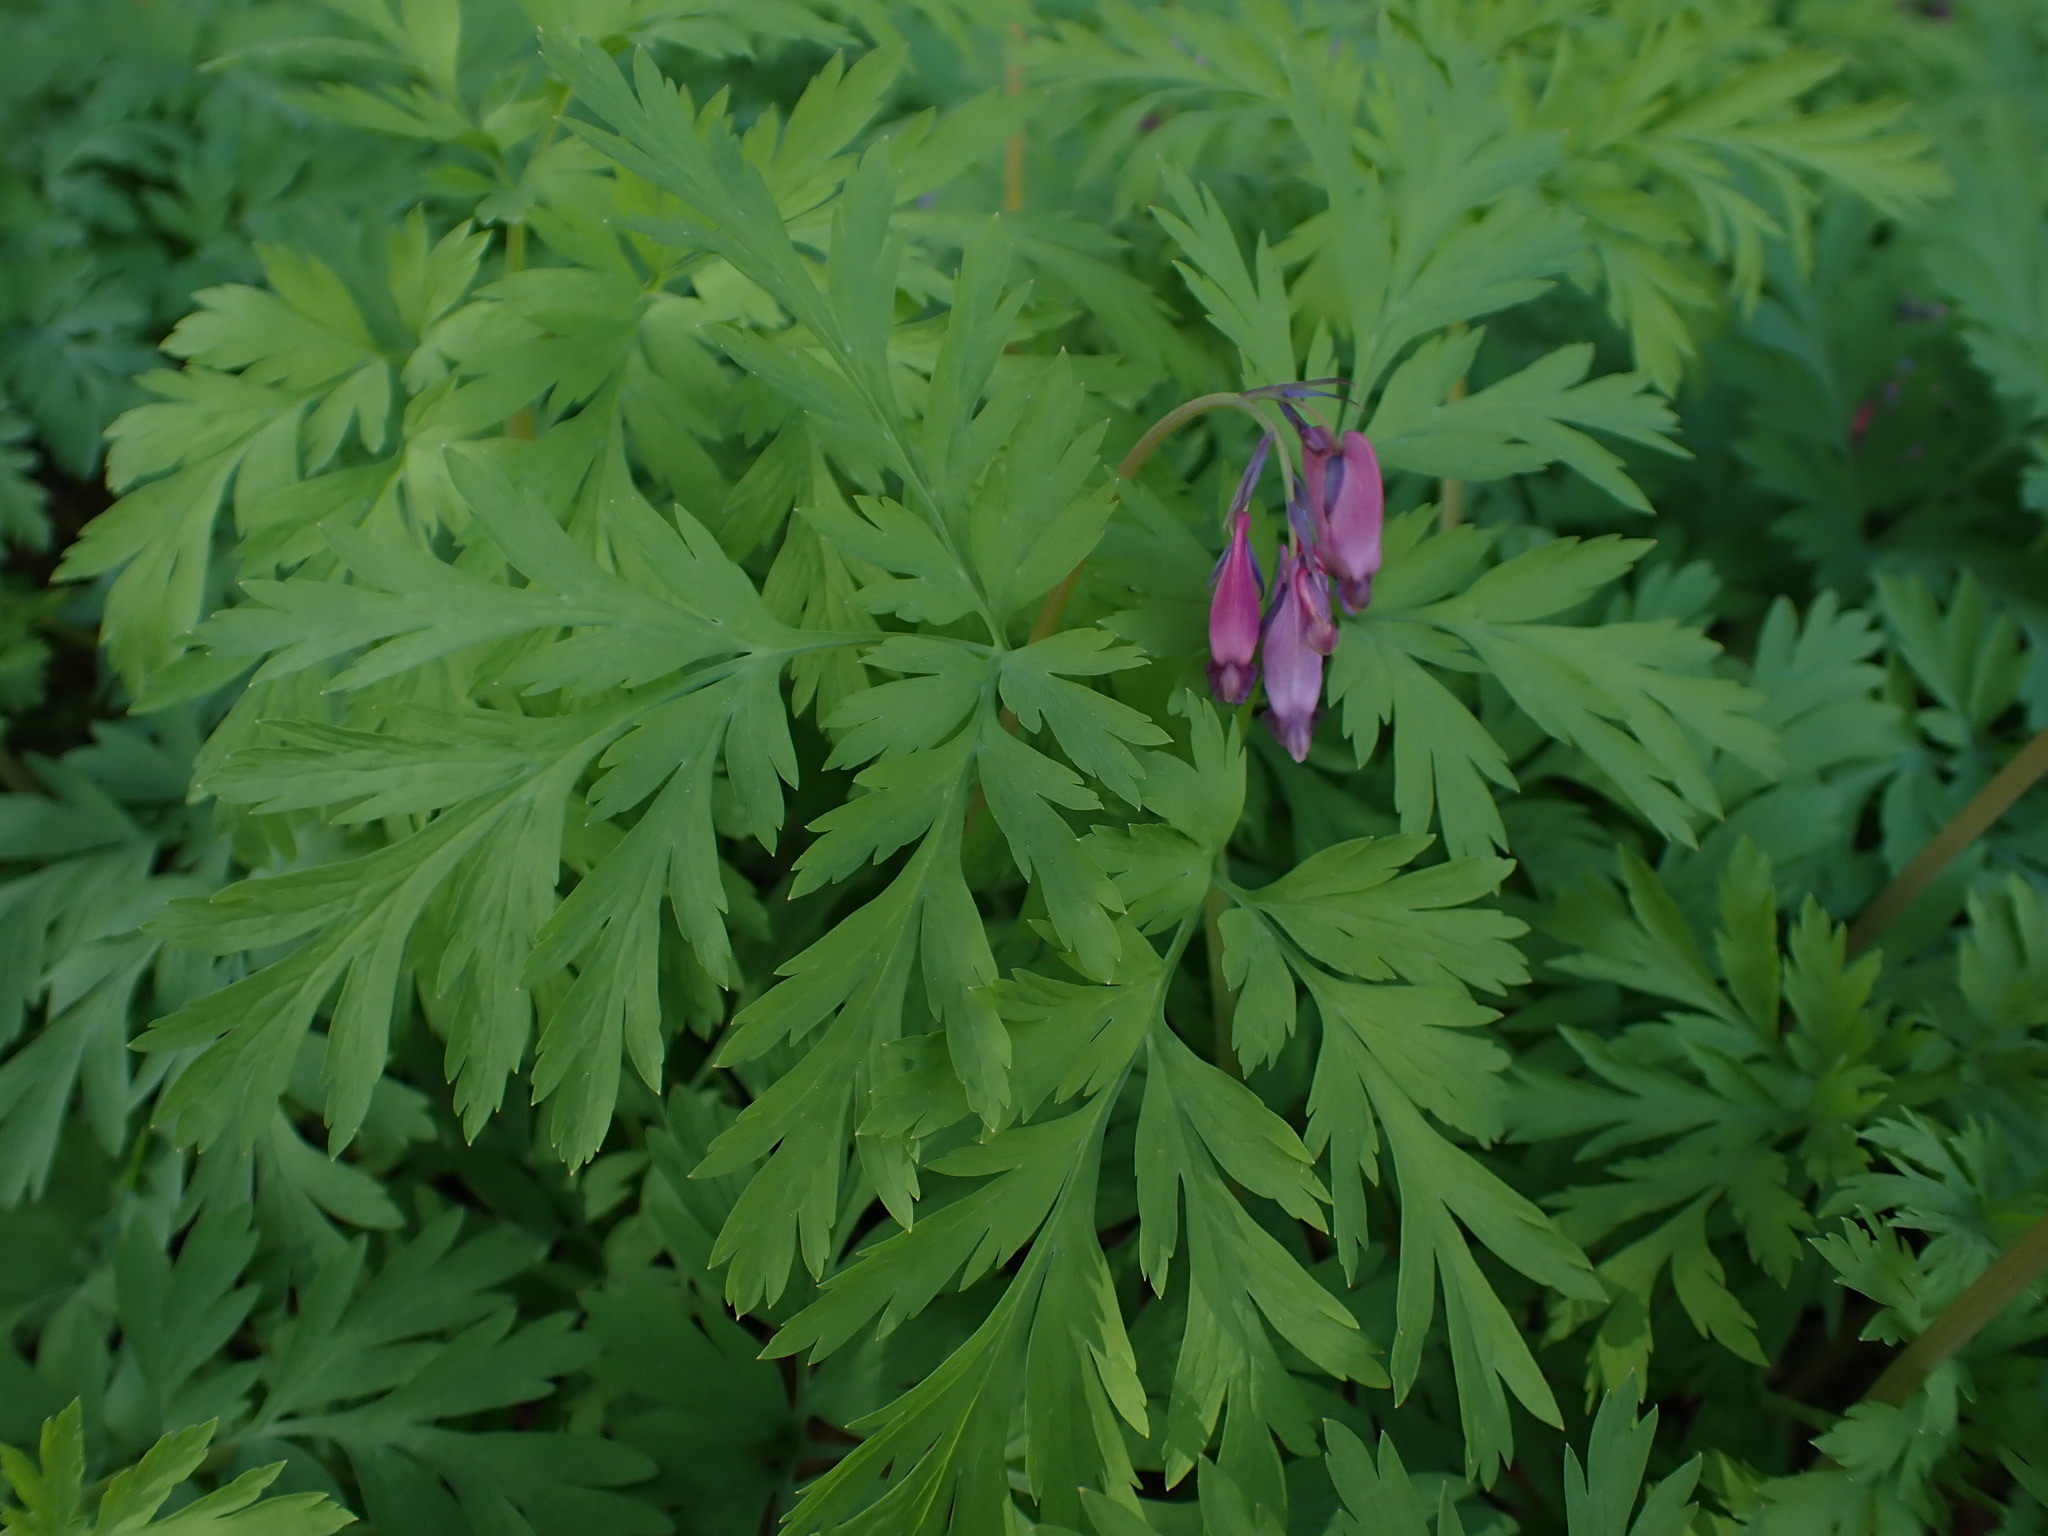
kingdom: Plantae
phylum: Tracheophyta
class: Magnoliopsida
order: Ranunculales
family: Papaveraceae
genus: Dicentra
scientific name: Dicentra formosa
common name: Bleeding-heart
